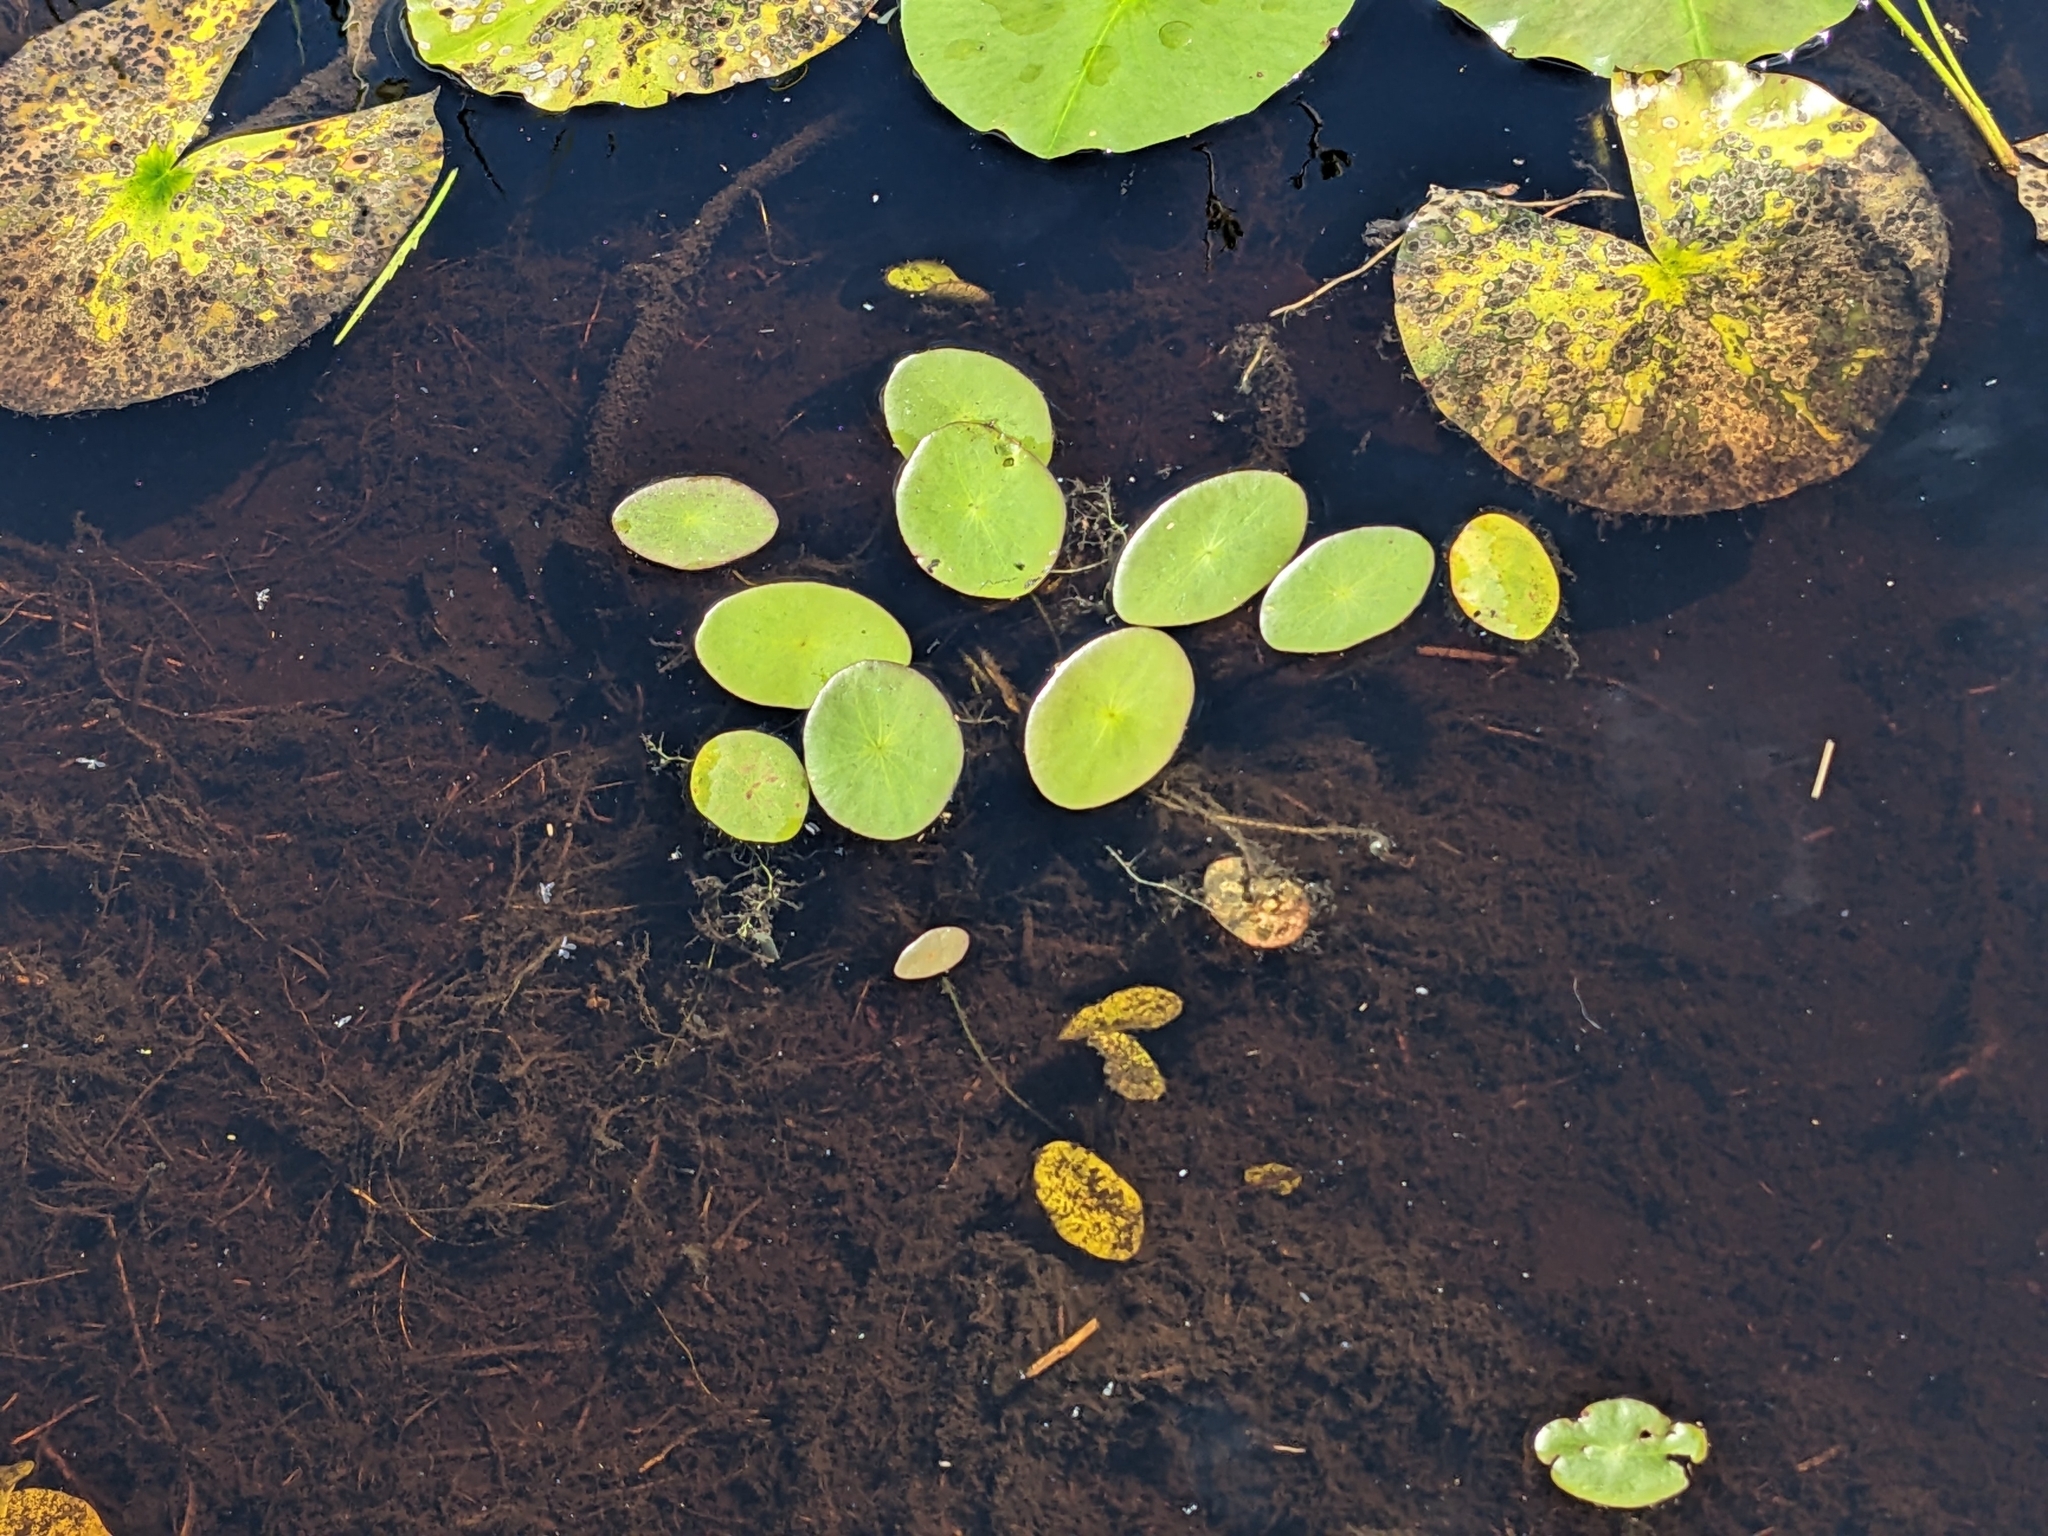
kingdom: Plantae
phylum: Tracheophyta
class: Magnoliopsida
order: Nymphaeales
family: Cabombaceae
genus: Brasenia
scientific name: Brasenia schreberi
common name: Water-shield
